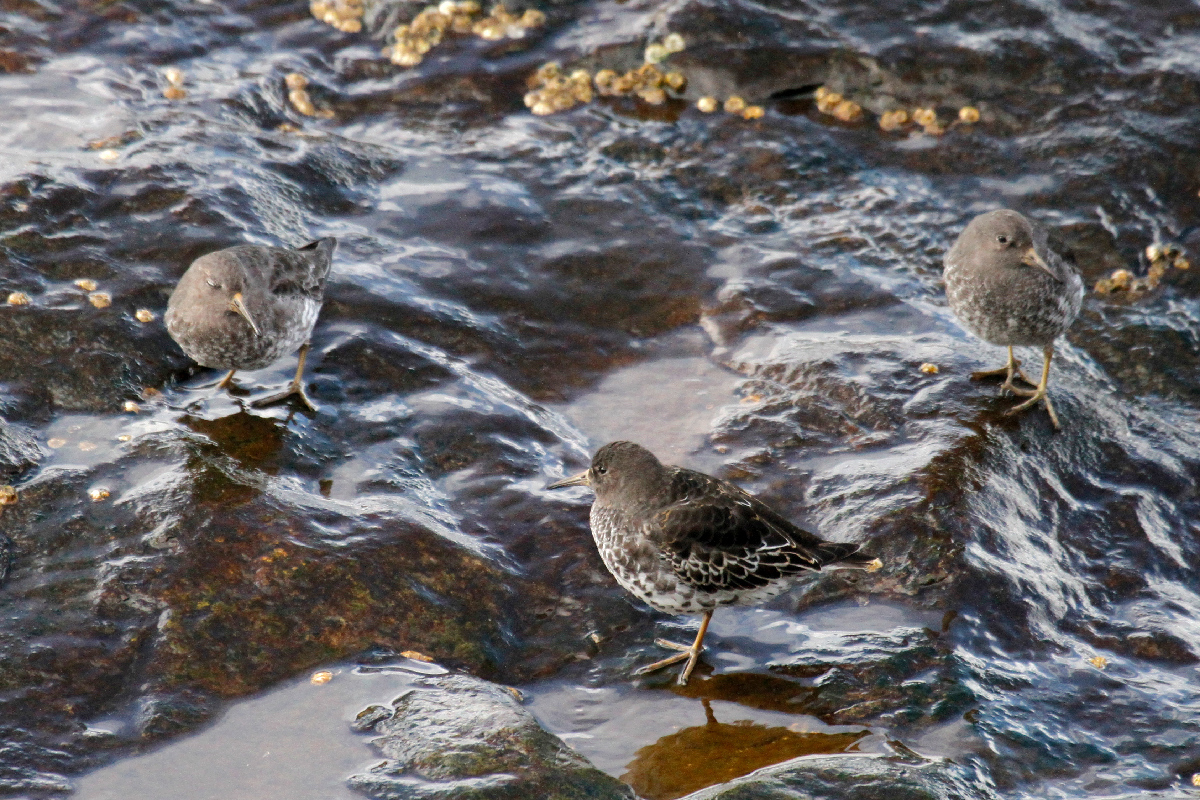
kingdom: Animalia
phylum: Chordata
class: Aves
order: Charadriiformes
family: Scolopacidae
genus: Calidris
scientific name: Calidris ptilocnemis
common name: Rock sandpiper
